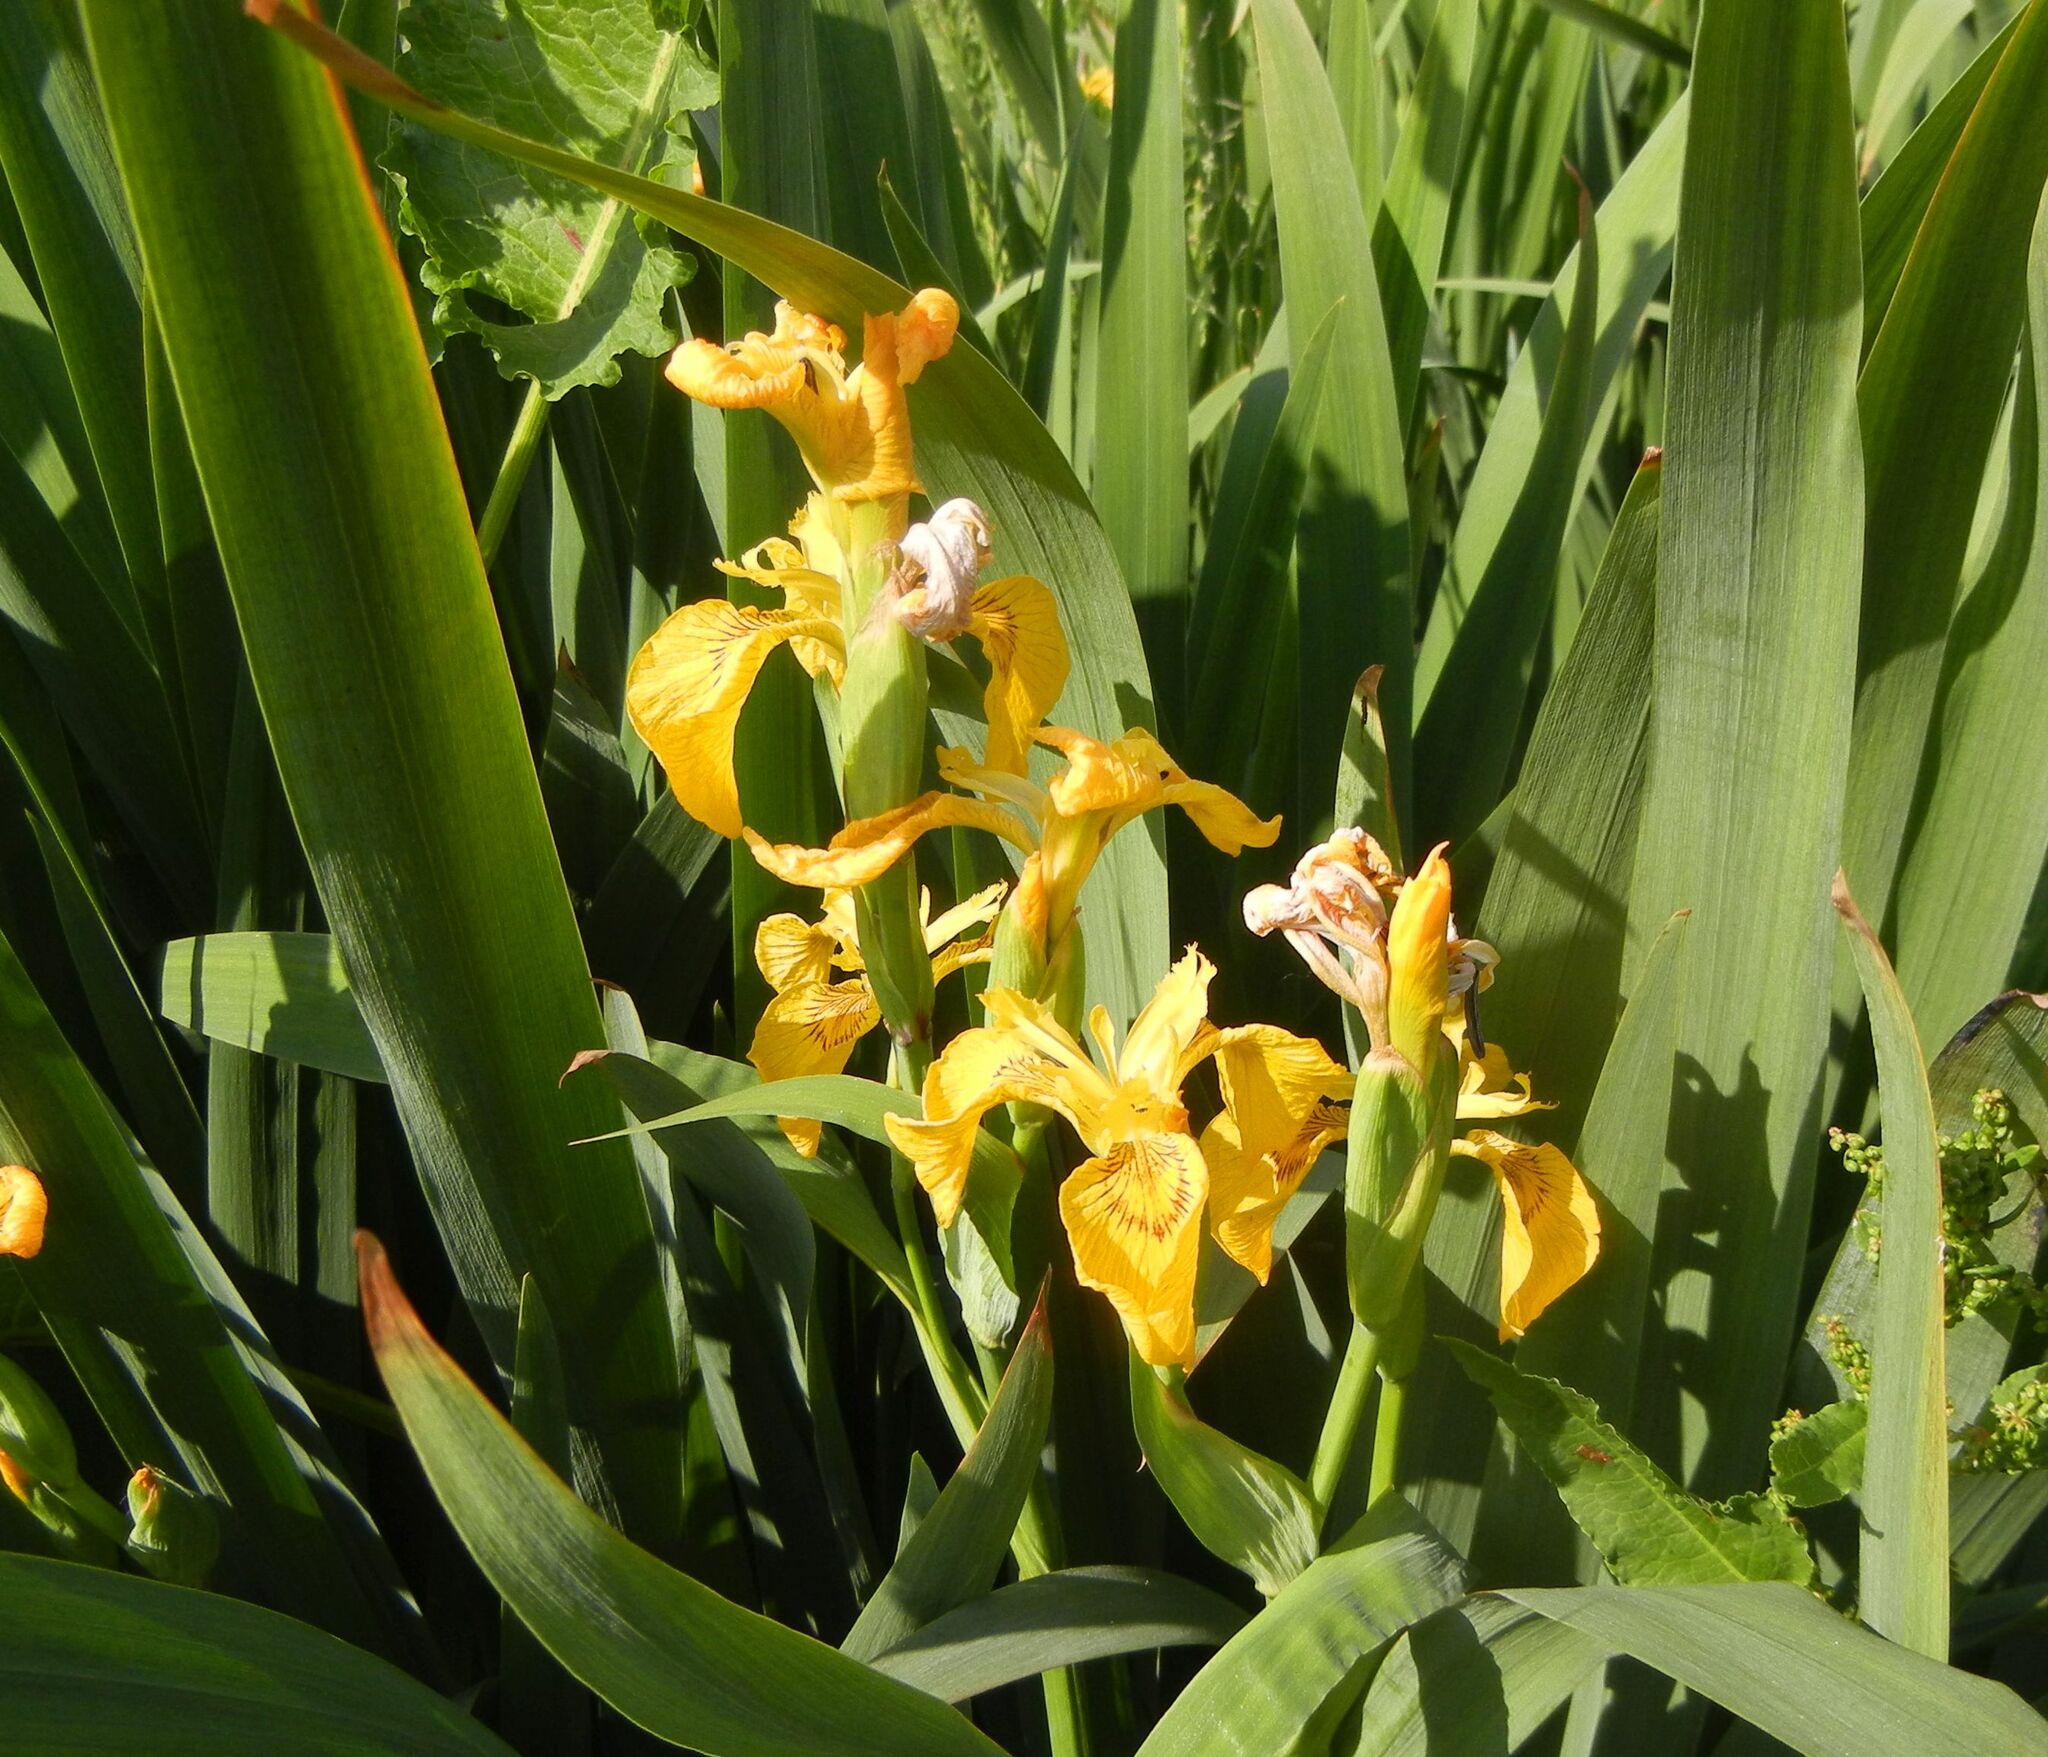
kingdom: Plantae
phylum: Tracheophyta
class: Liliopsida
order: Asparagales
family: Iridaceae
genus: Iris
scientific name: Iris pseudacorus
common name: Yellow flag
